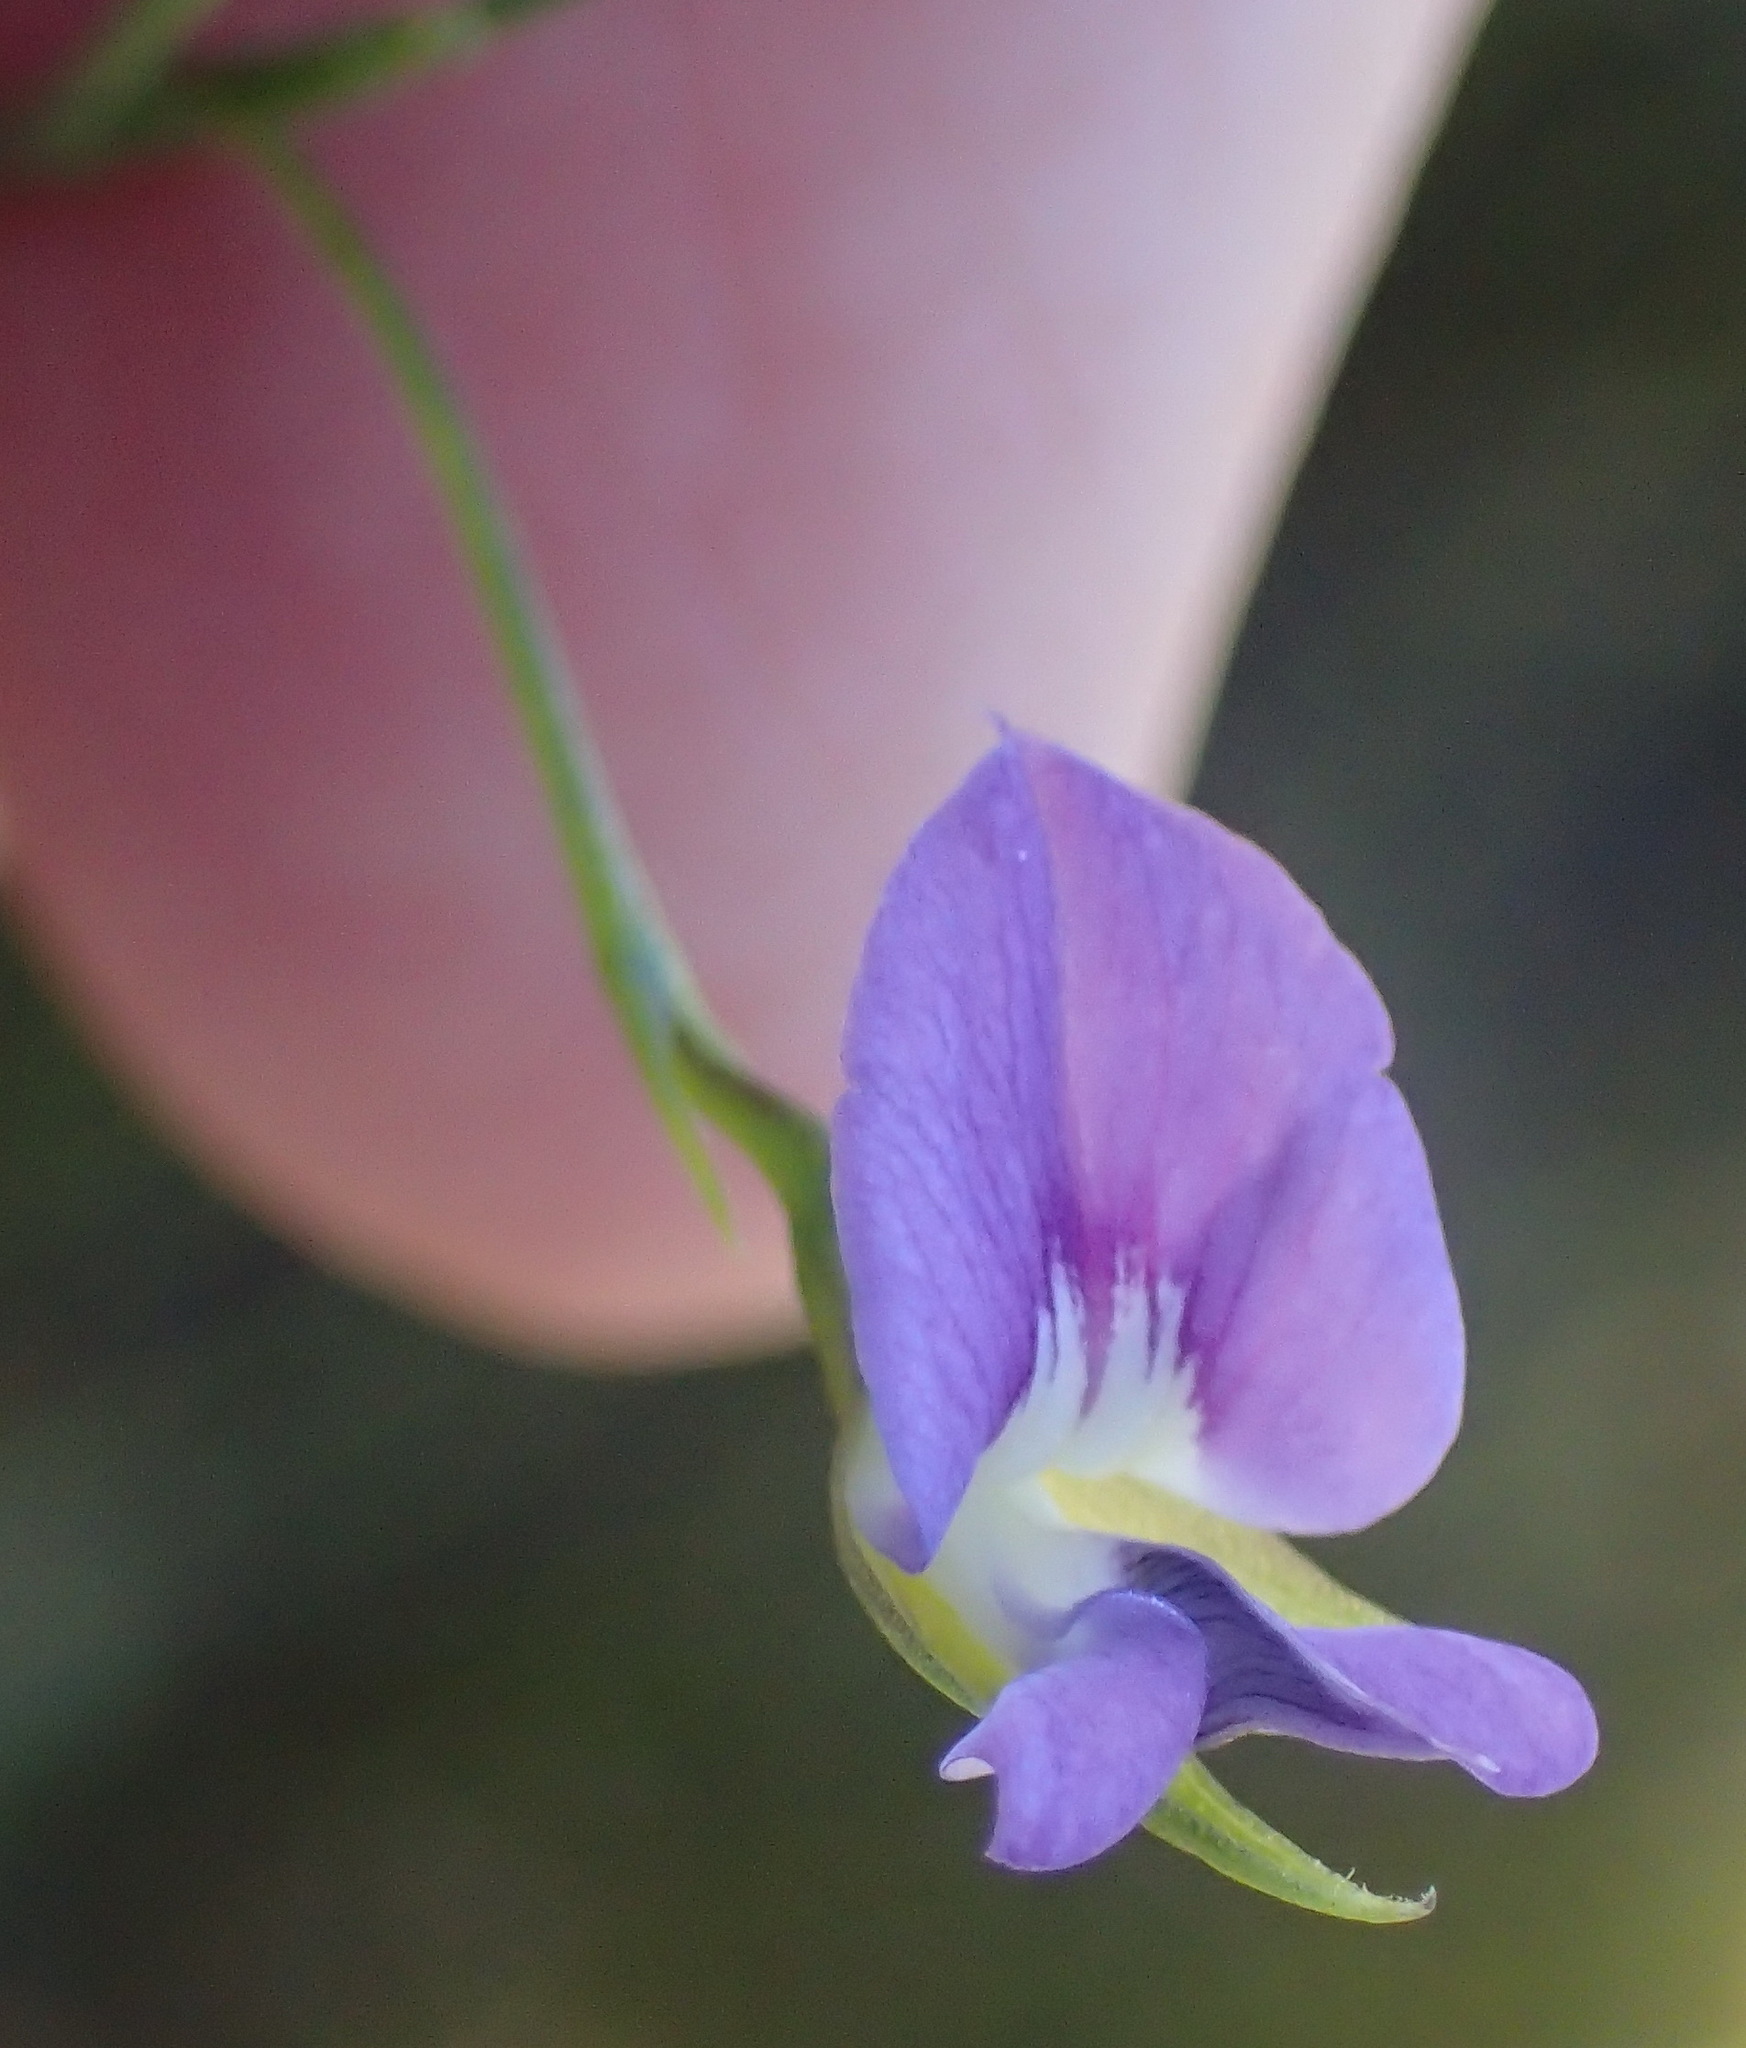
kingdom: Plantae
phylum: Tracheophyta
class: Magnoliopsida
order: Fabales
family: Fabaceae
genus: Psoralea
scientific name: Psoralea trullata
